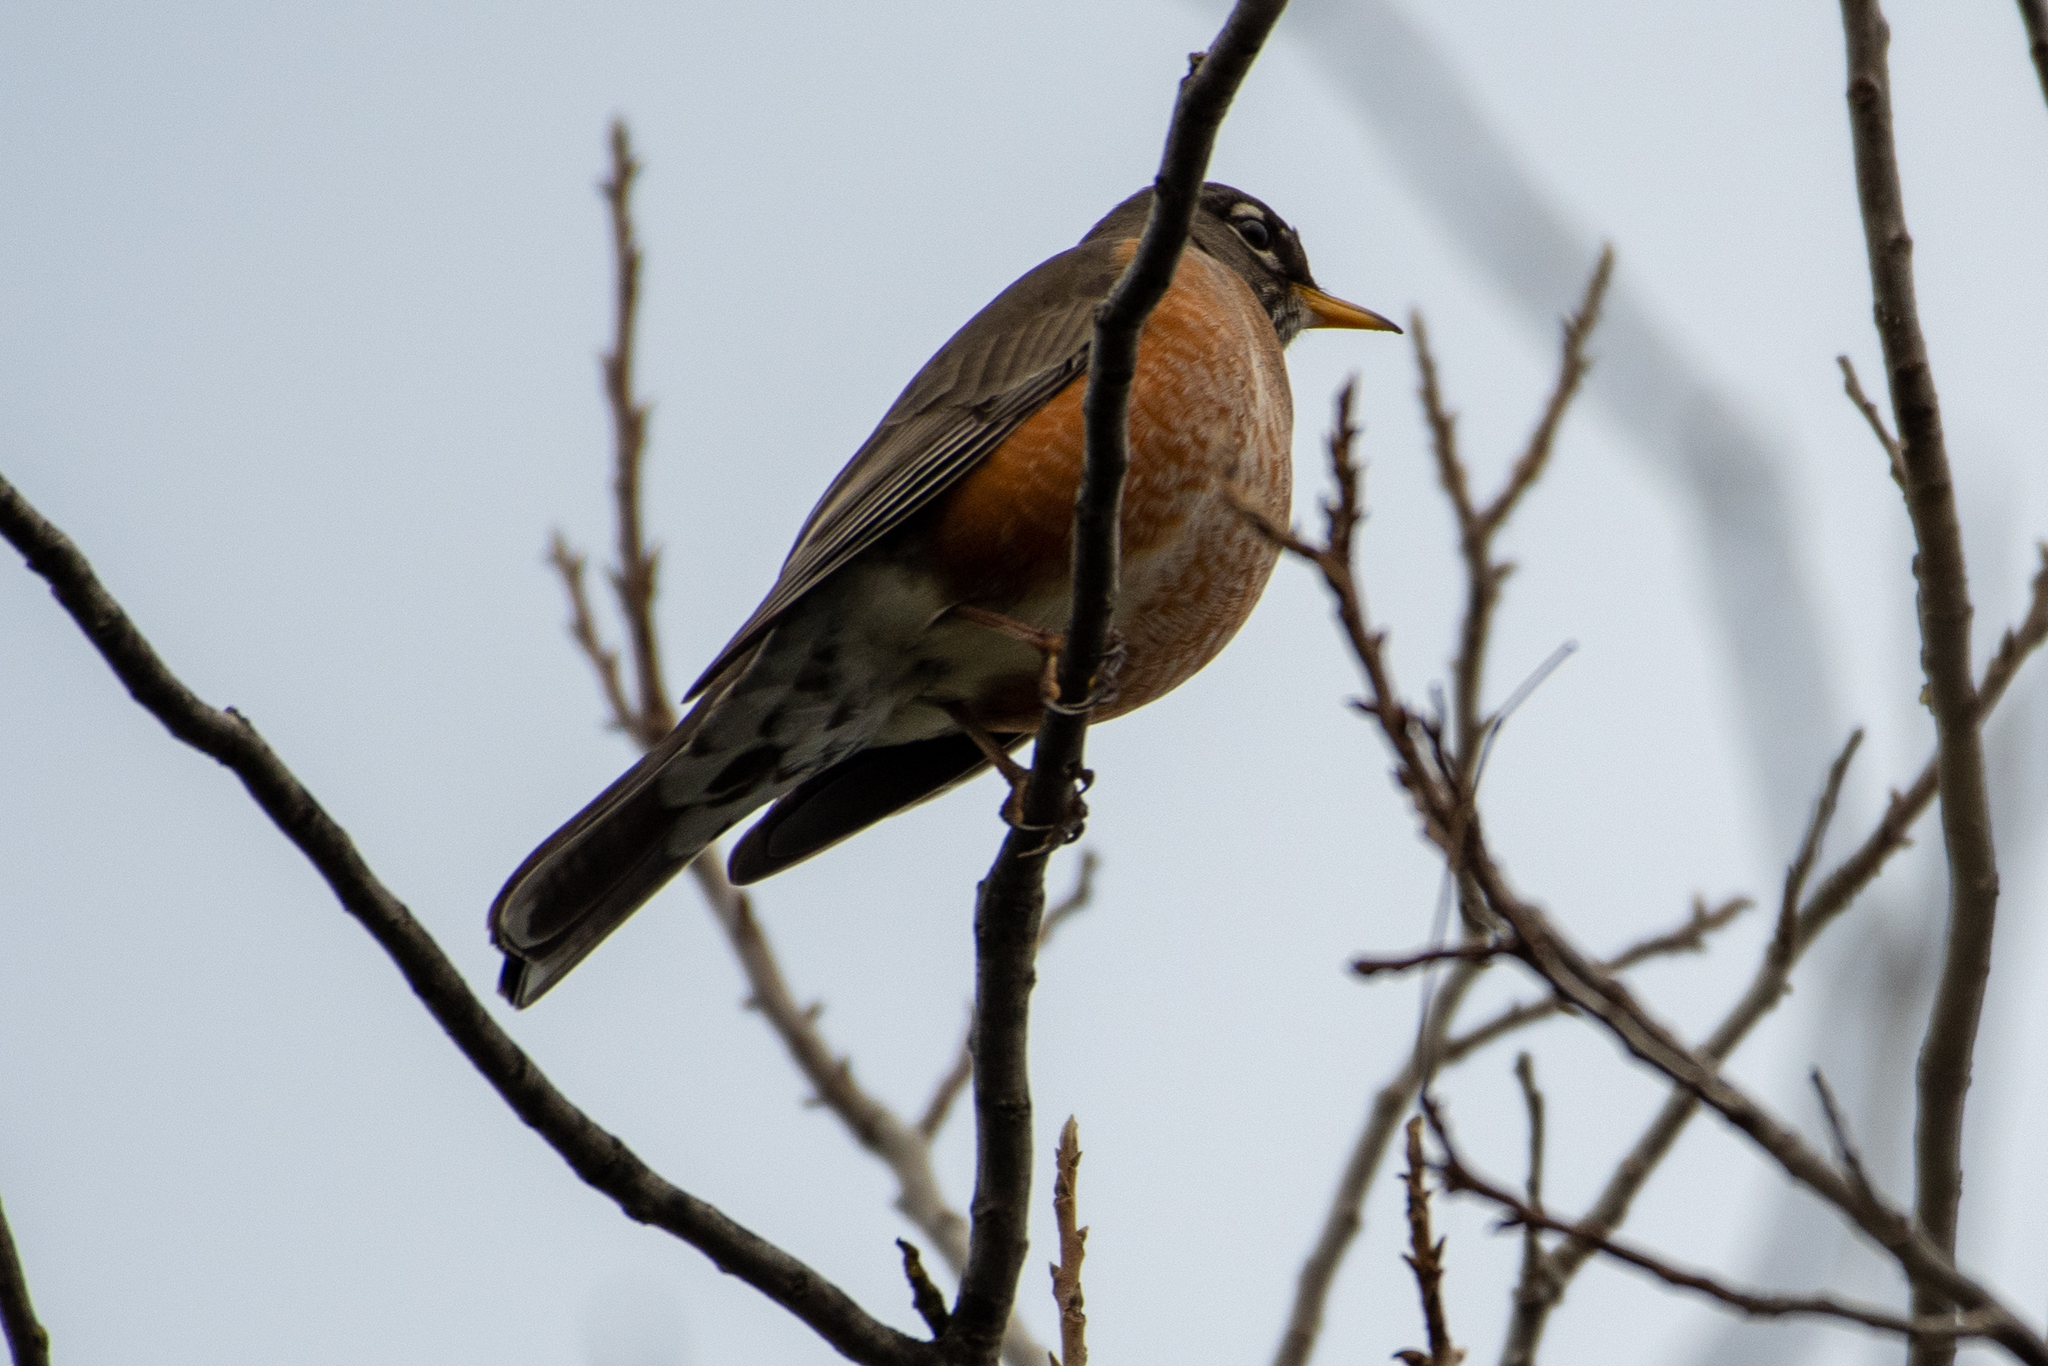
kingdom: Animalia
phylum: Chordata
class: Aves
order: Passeriformes
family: Turdidae
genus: Turdus
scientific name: Turdus migratorius
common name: American robin
